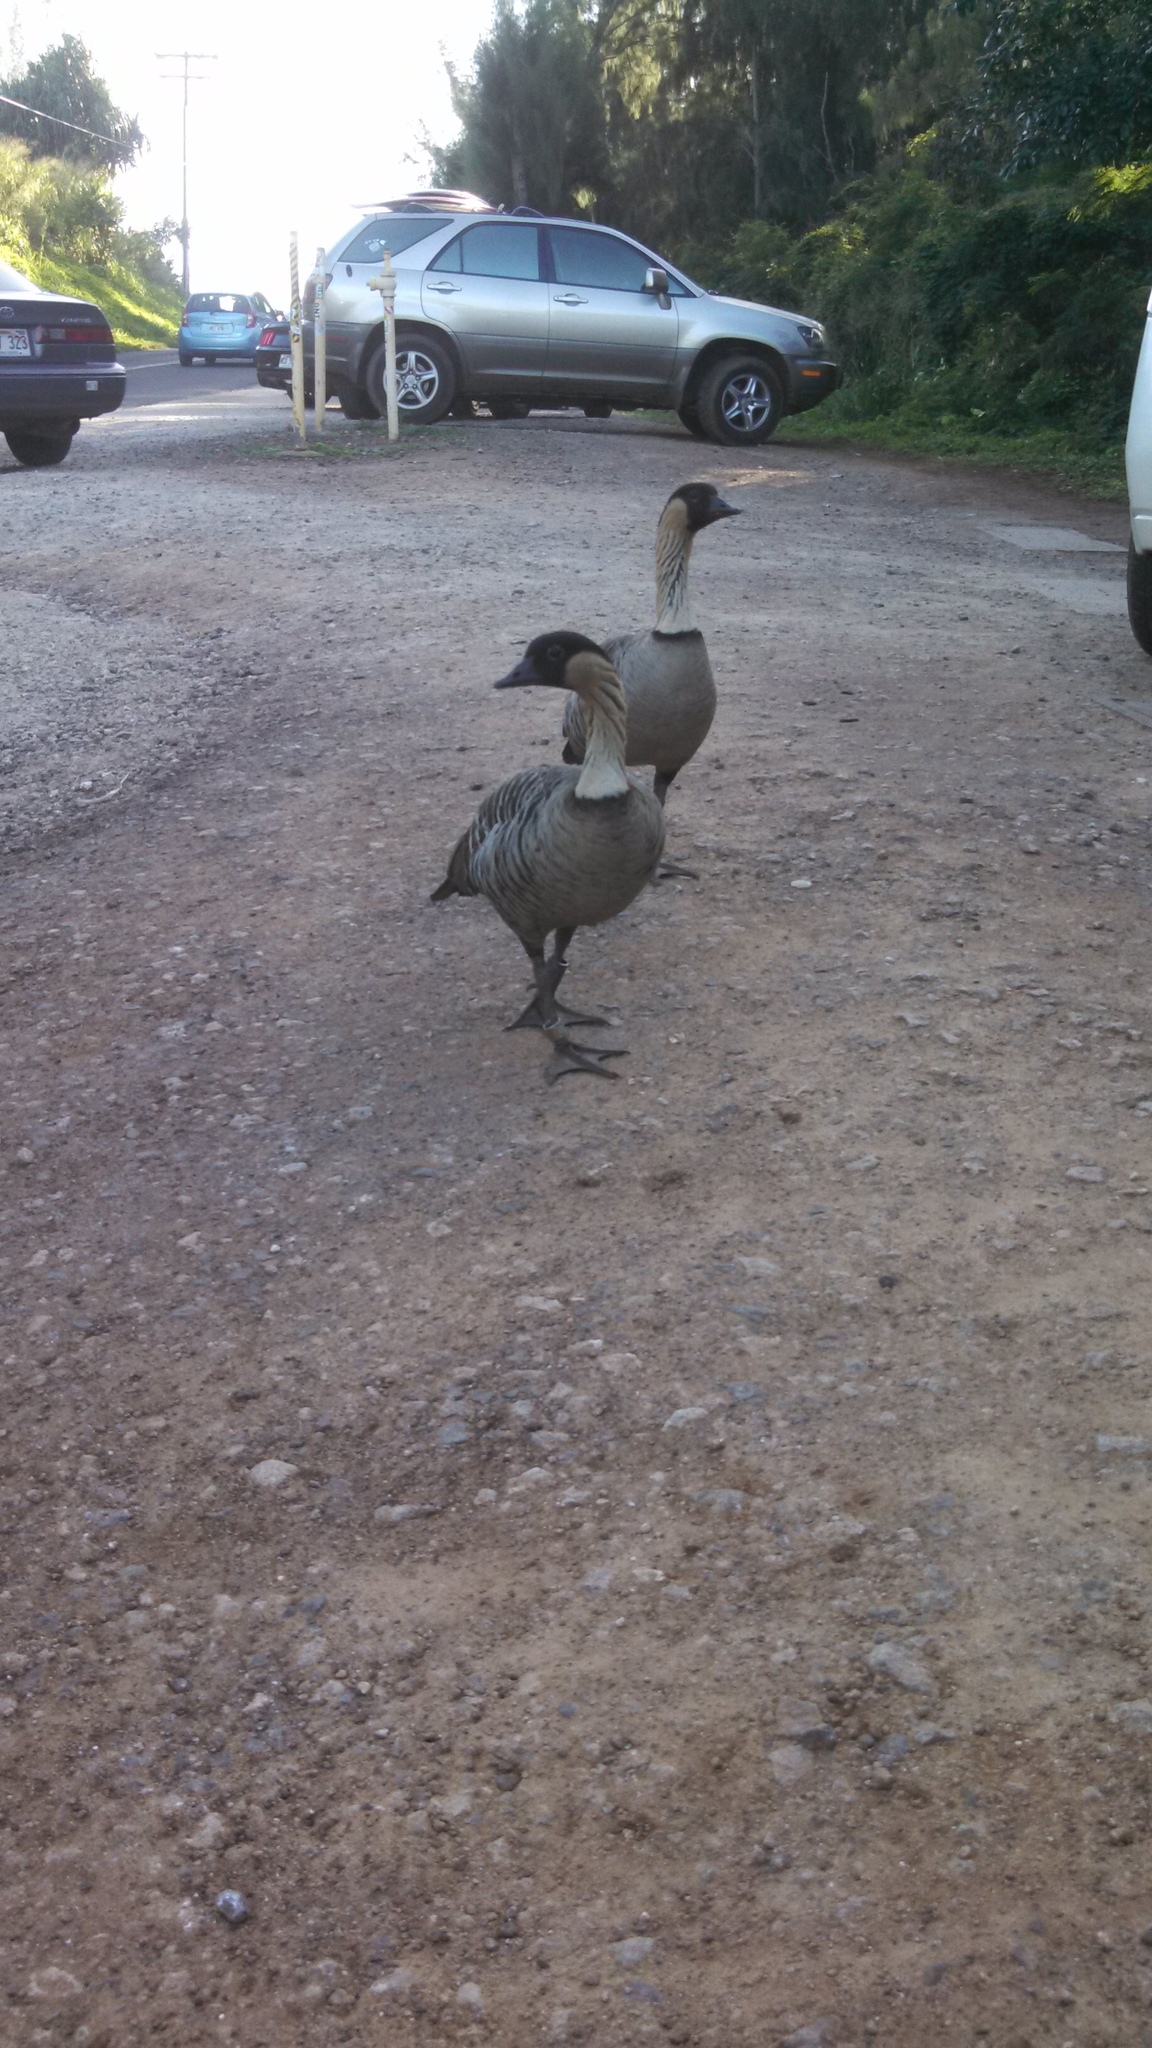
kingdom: Animalia
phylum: Chordata
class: Aves
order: Anseriformes
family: Anatidae
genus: Branta
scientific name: Branta sandvicensis
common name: Nene
